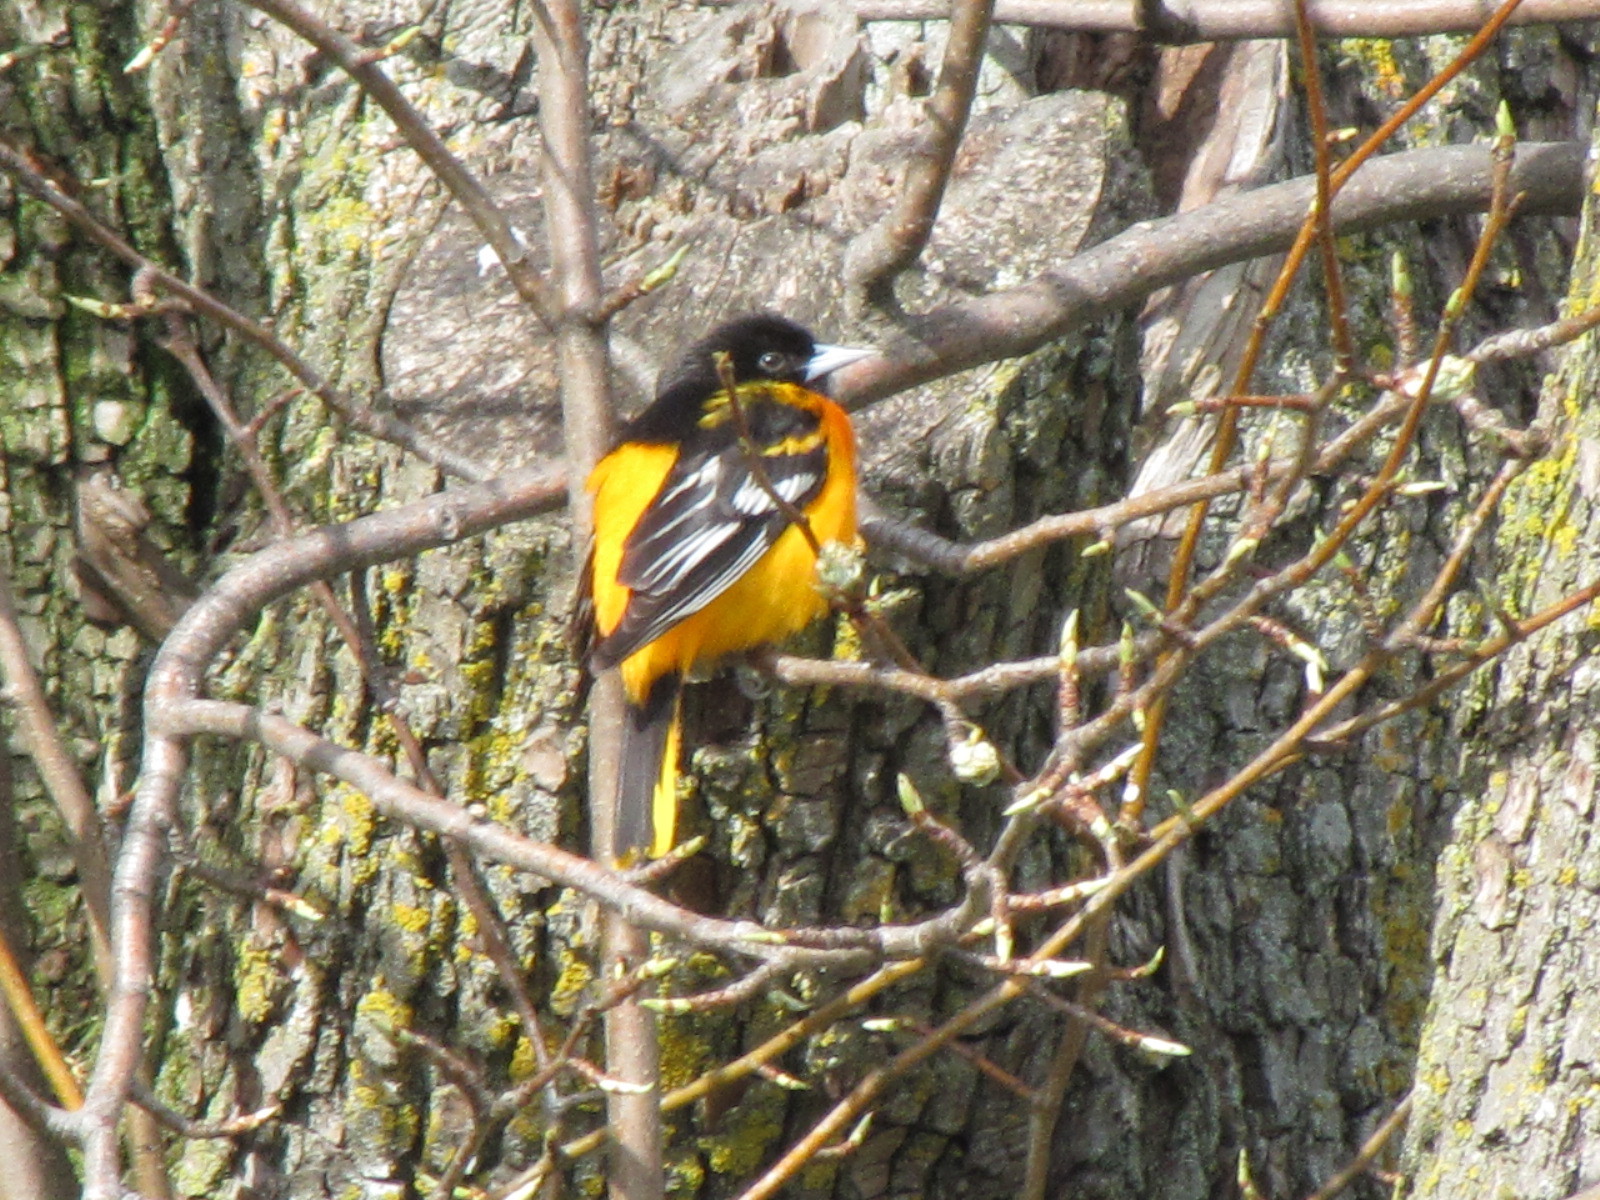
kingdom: Animalia
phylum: Chordata
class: Aves
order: Passeriformes
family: Icteridae
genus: Icterus
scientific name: Icterus galbula
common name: Baltimore oriole
